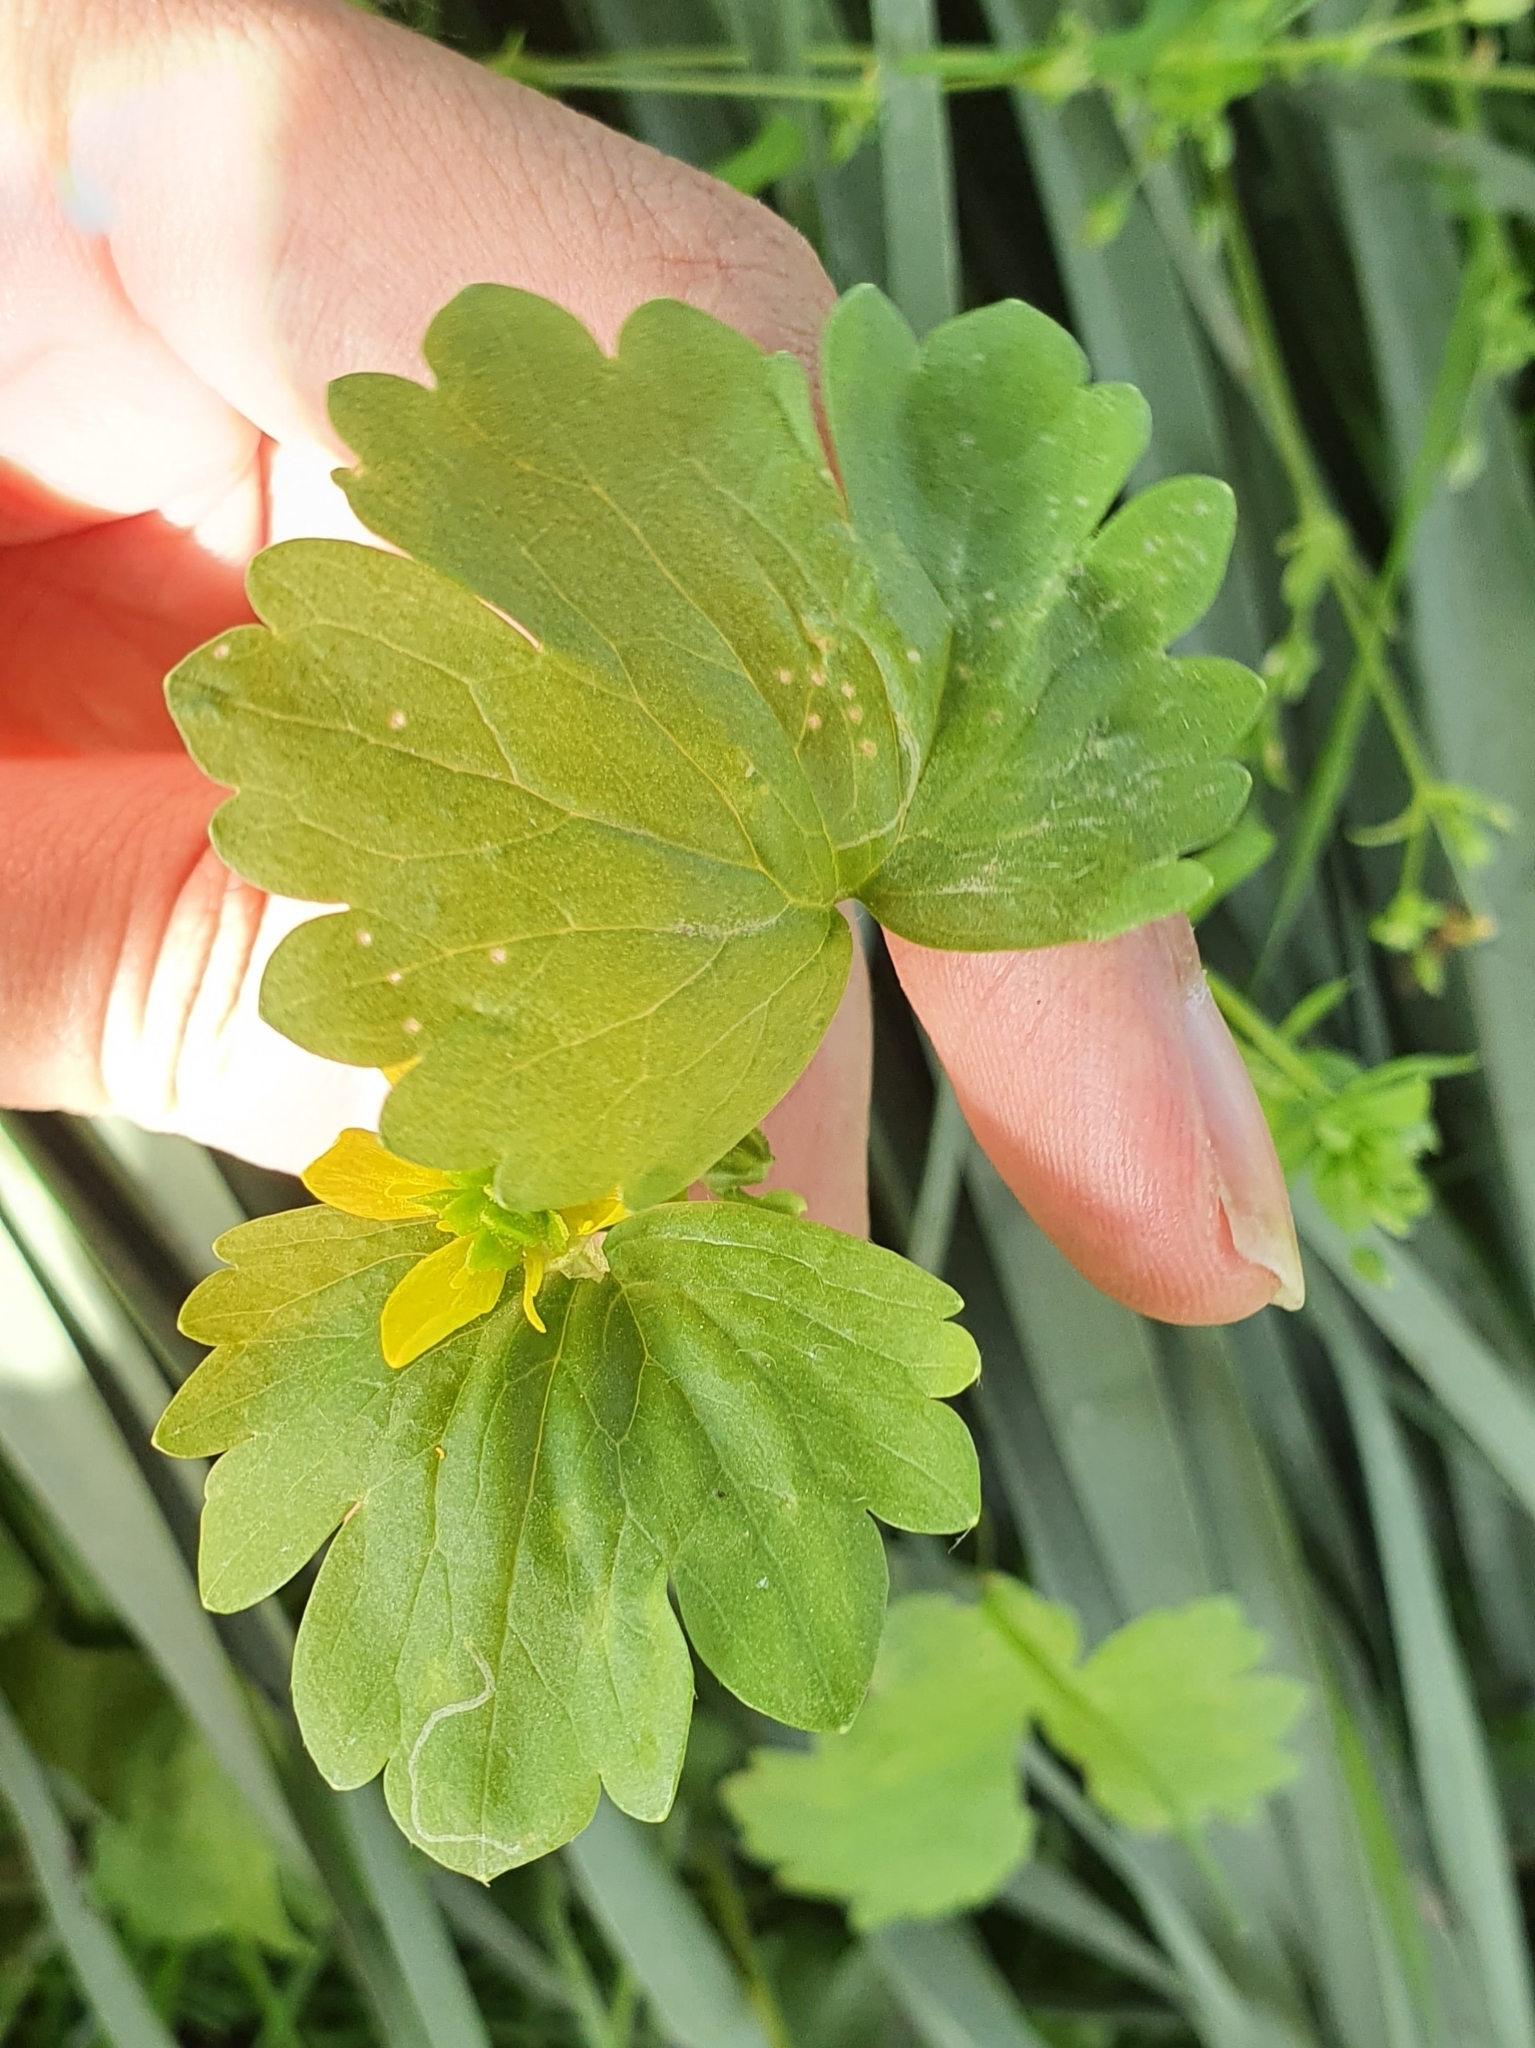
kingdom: Plantae
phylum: Tracheophyta
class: Magnoliopsida
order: Ranunculales
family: Ranunculaceae
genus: Ranunculus
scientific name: Ranunculus muricatus
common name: Rough-fruited buttercup
